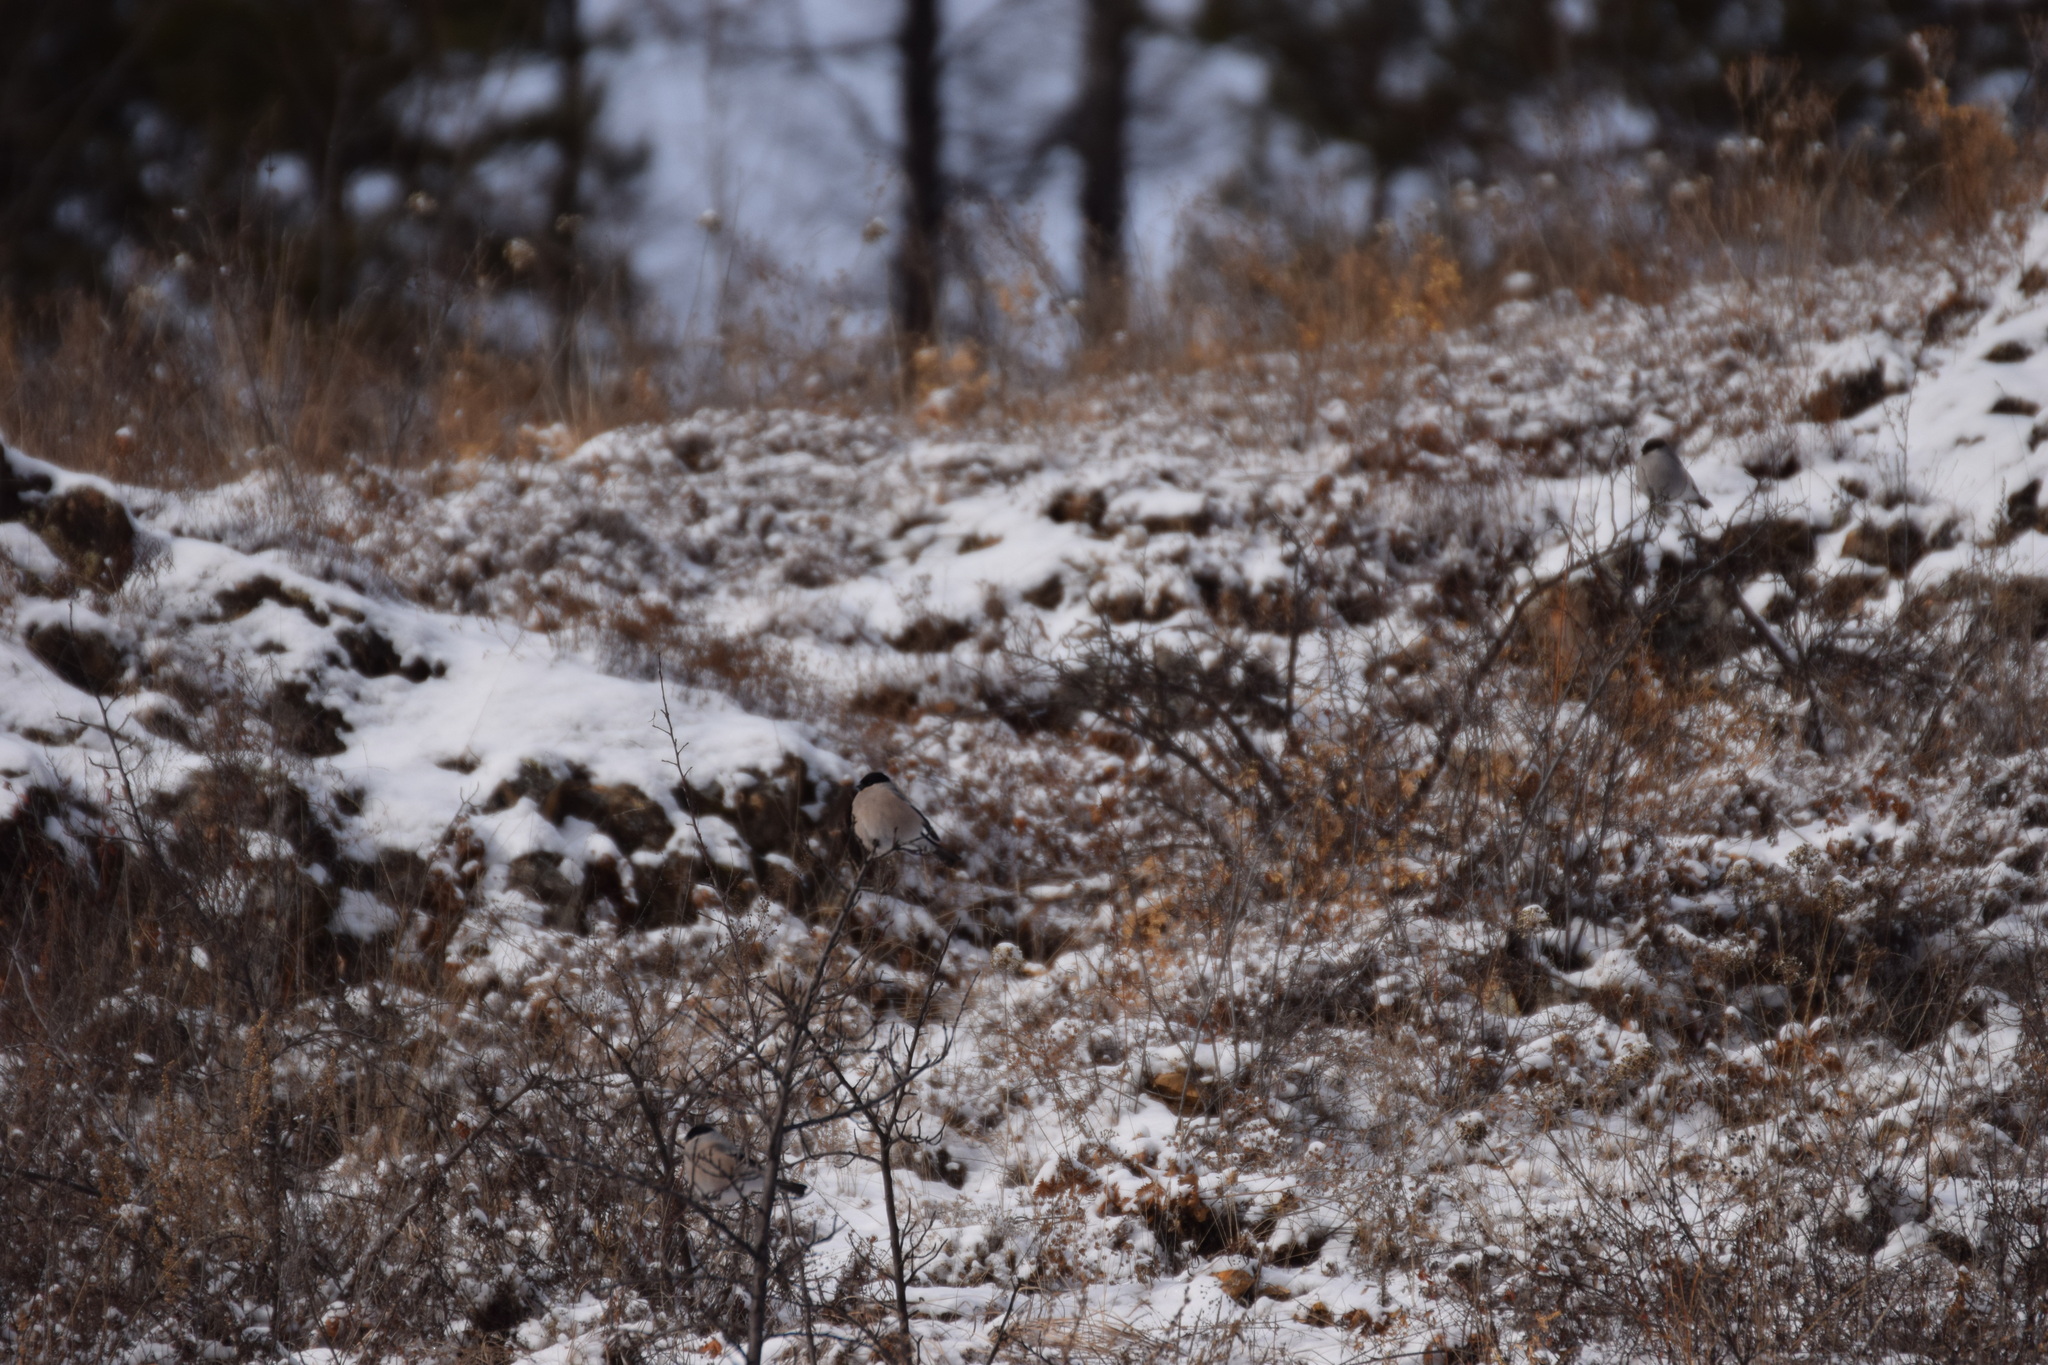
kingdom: Animalia
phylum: Chordata
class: Aves
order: Passeriformes
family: Fringillidae
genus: Pyrrhula
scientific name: Pyrrhula pyrrhula
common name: Eurasian bullfinch
